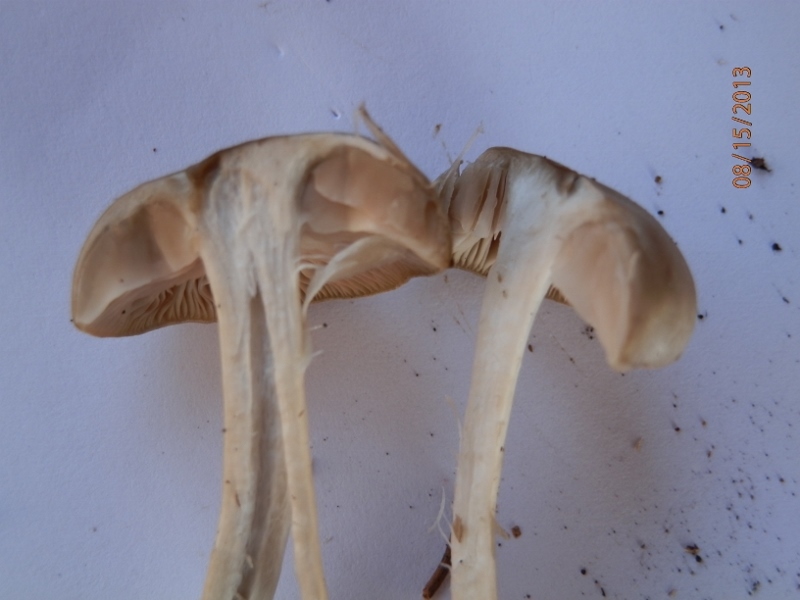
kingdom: Fungi
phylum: Basidiomycota
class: Agaricomycetes
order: Agaricales
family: Entolomataceae
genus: Entoloma
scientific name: Entoloma clypeatum
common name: Shield pinkgill
